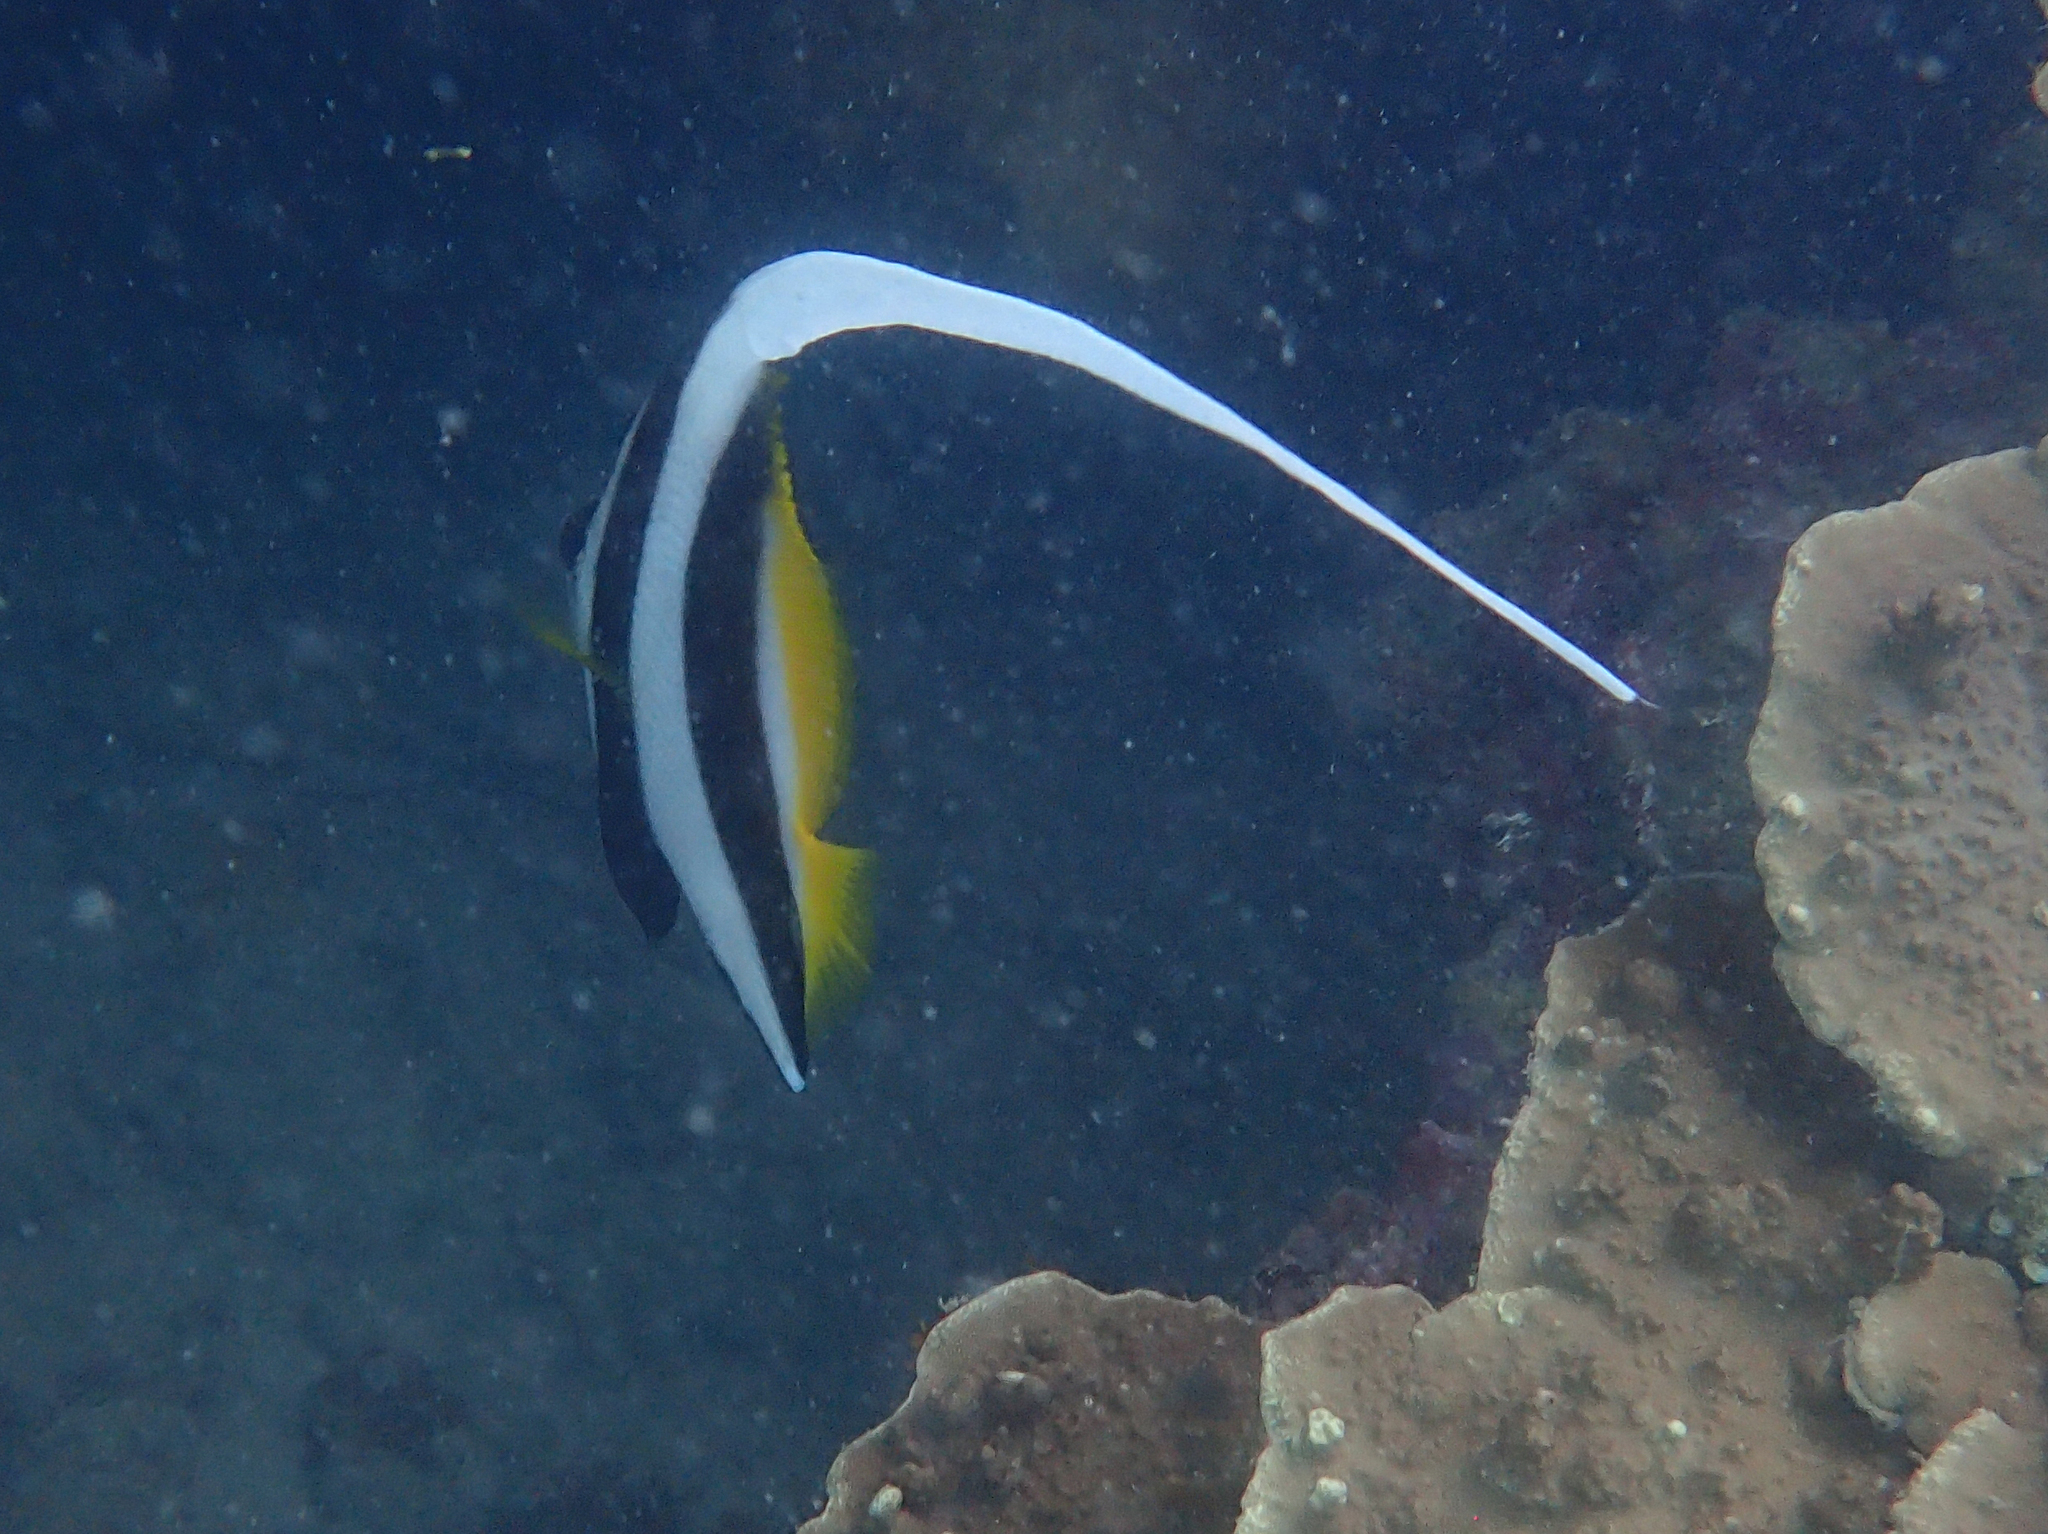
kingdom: Animalia
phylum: Chordata
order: Perciformes
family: Chaetodontidae
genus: Heniochus
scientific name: Heniochus acuminatus
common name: Pennant coralfish
